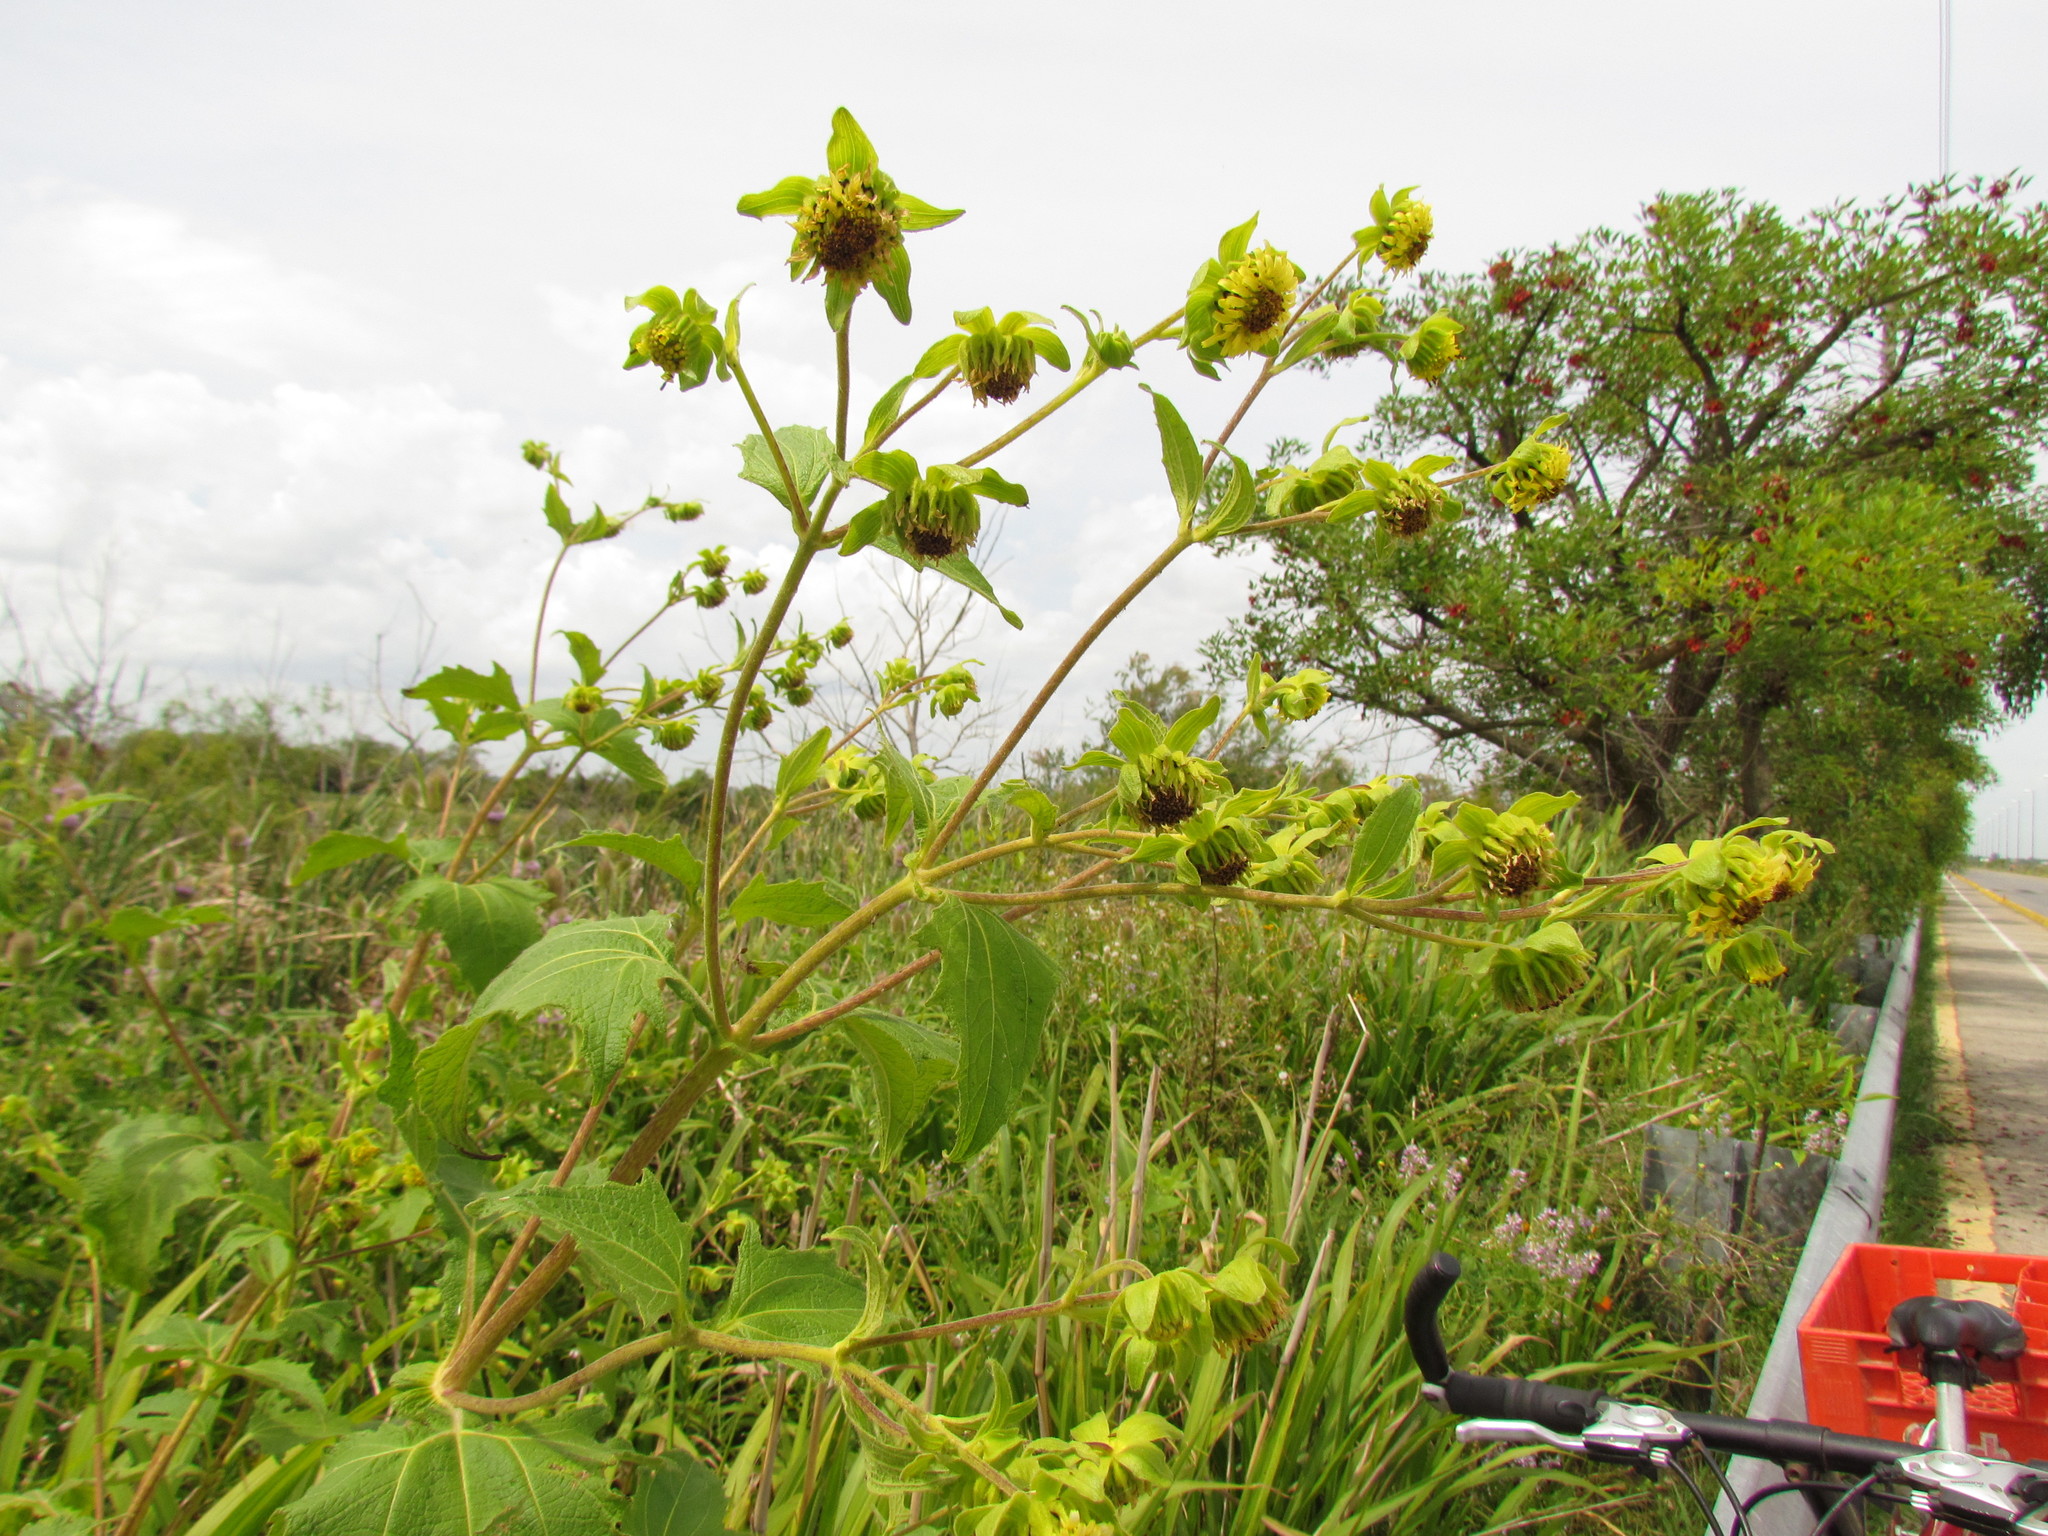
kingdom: Plantae
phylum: Tracheophyta
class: Magnoliopsida
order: Asterales
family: Asteraceae
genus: Smallanthus
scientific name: Smallanthus connatus
